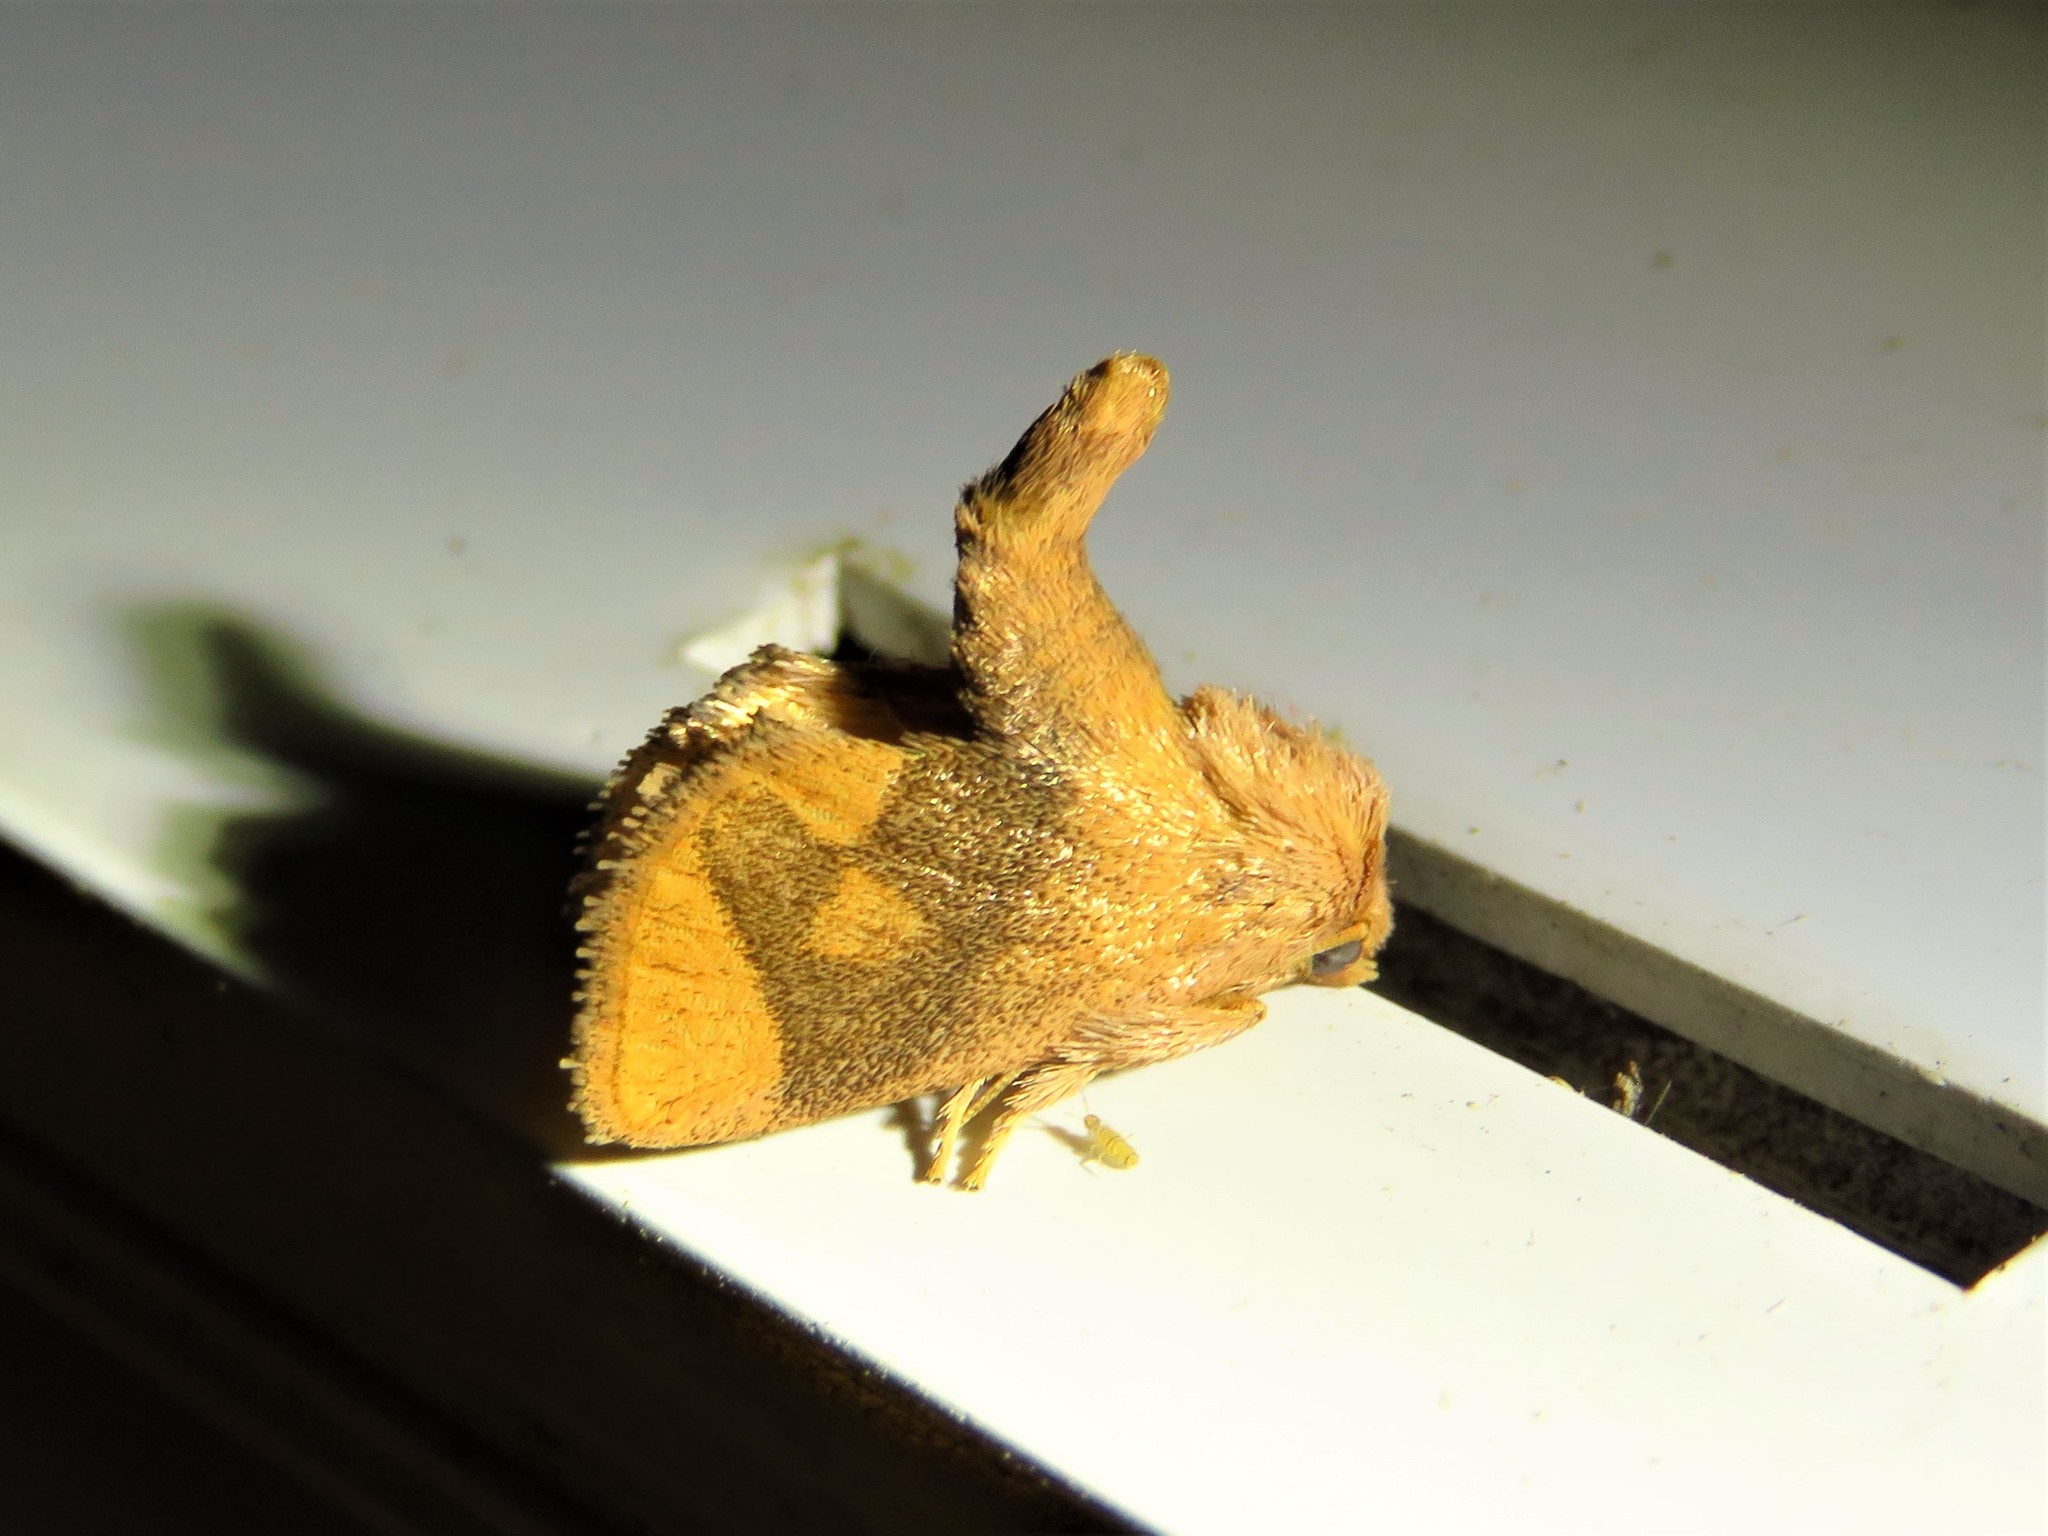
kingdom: Animalia
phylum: Arthropoda
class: Insecta
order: Lepidoptera
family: Limacodidae
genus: Apoda
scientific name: Apoda y-inversa
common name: Yellow-collared slug moth
